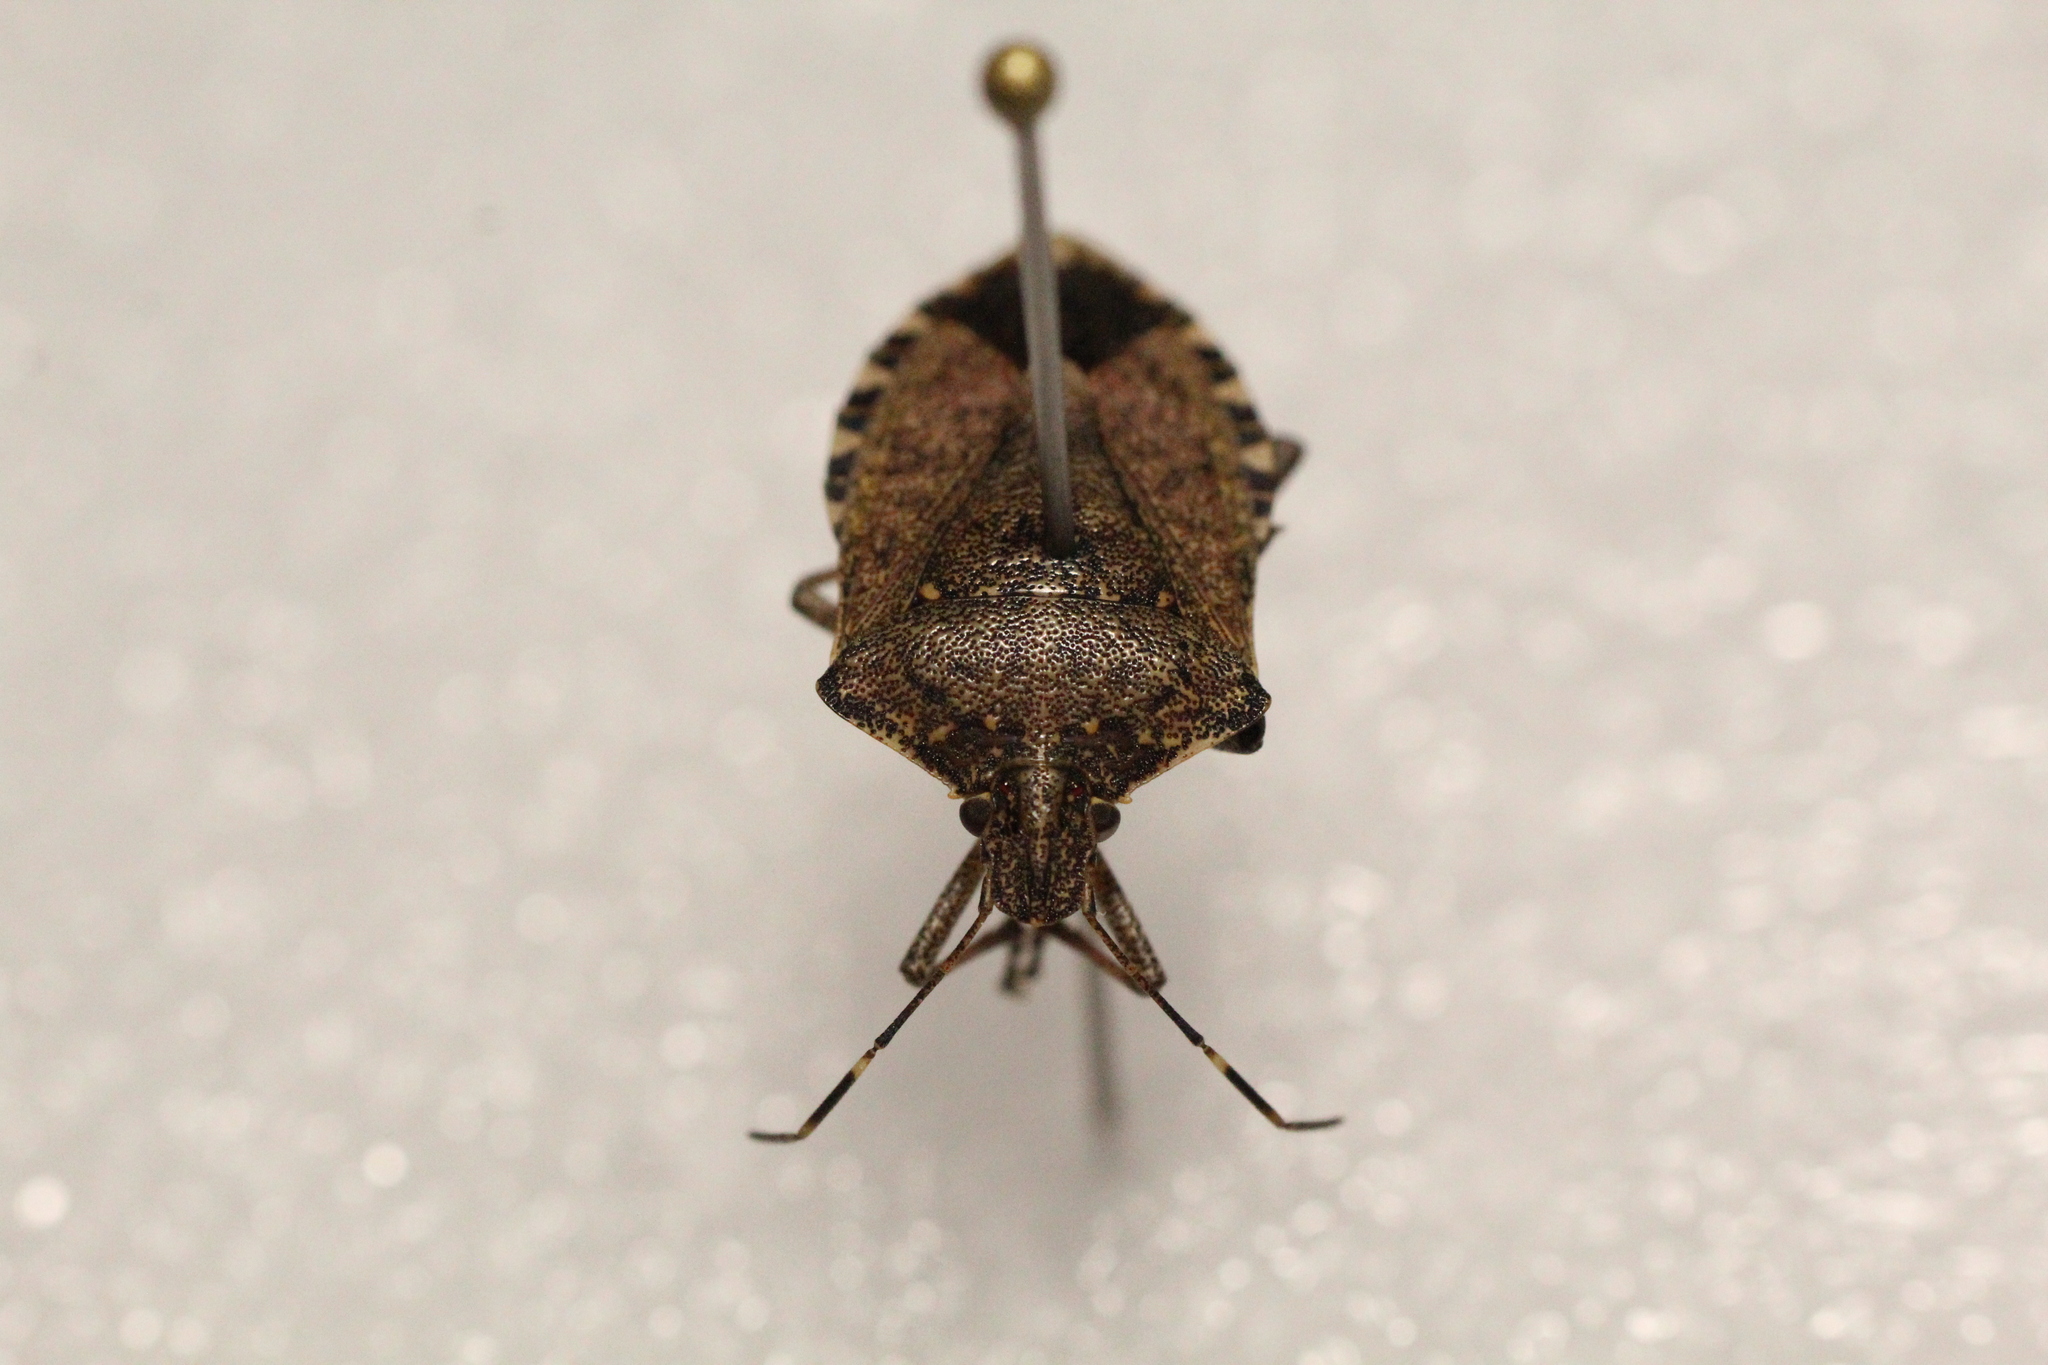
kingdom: Animalia
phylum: Arthropoda
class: Insecta
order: Hemiptera
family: Pentatomidae
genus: Halyomorpha
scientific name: Halyomorpha halys
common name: Brown marmorated stink bug
